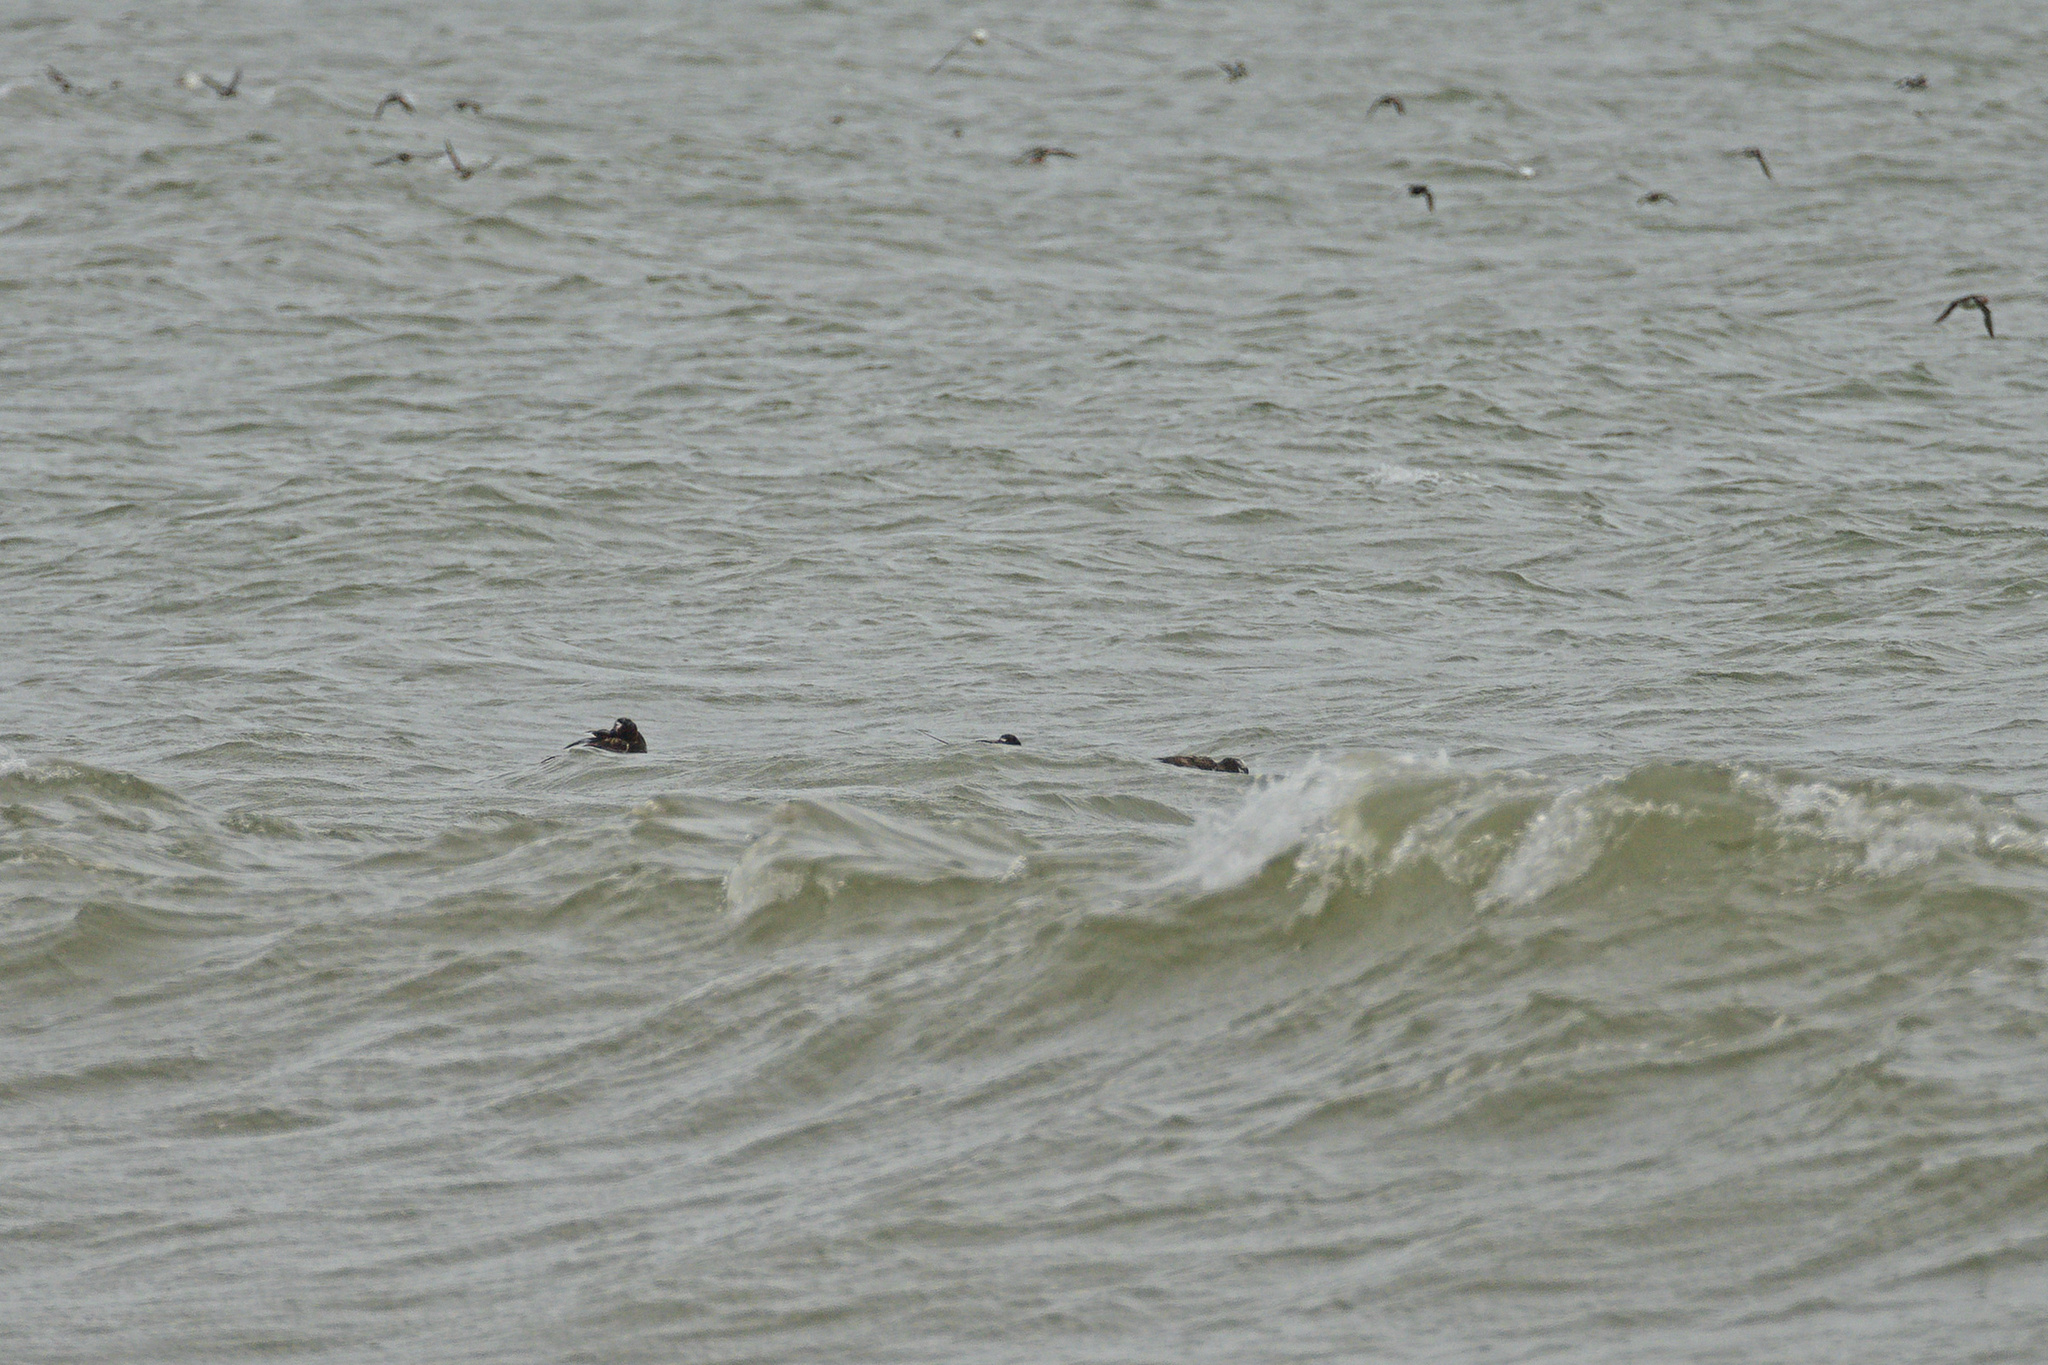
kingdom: Animalia
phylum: Chordata
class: Aves
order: Anseriformes
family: Anatidae
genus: Clangula
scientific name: Clangula hyemalis
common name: Long-tailed duck
